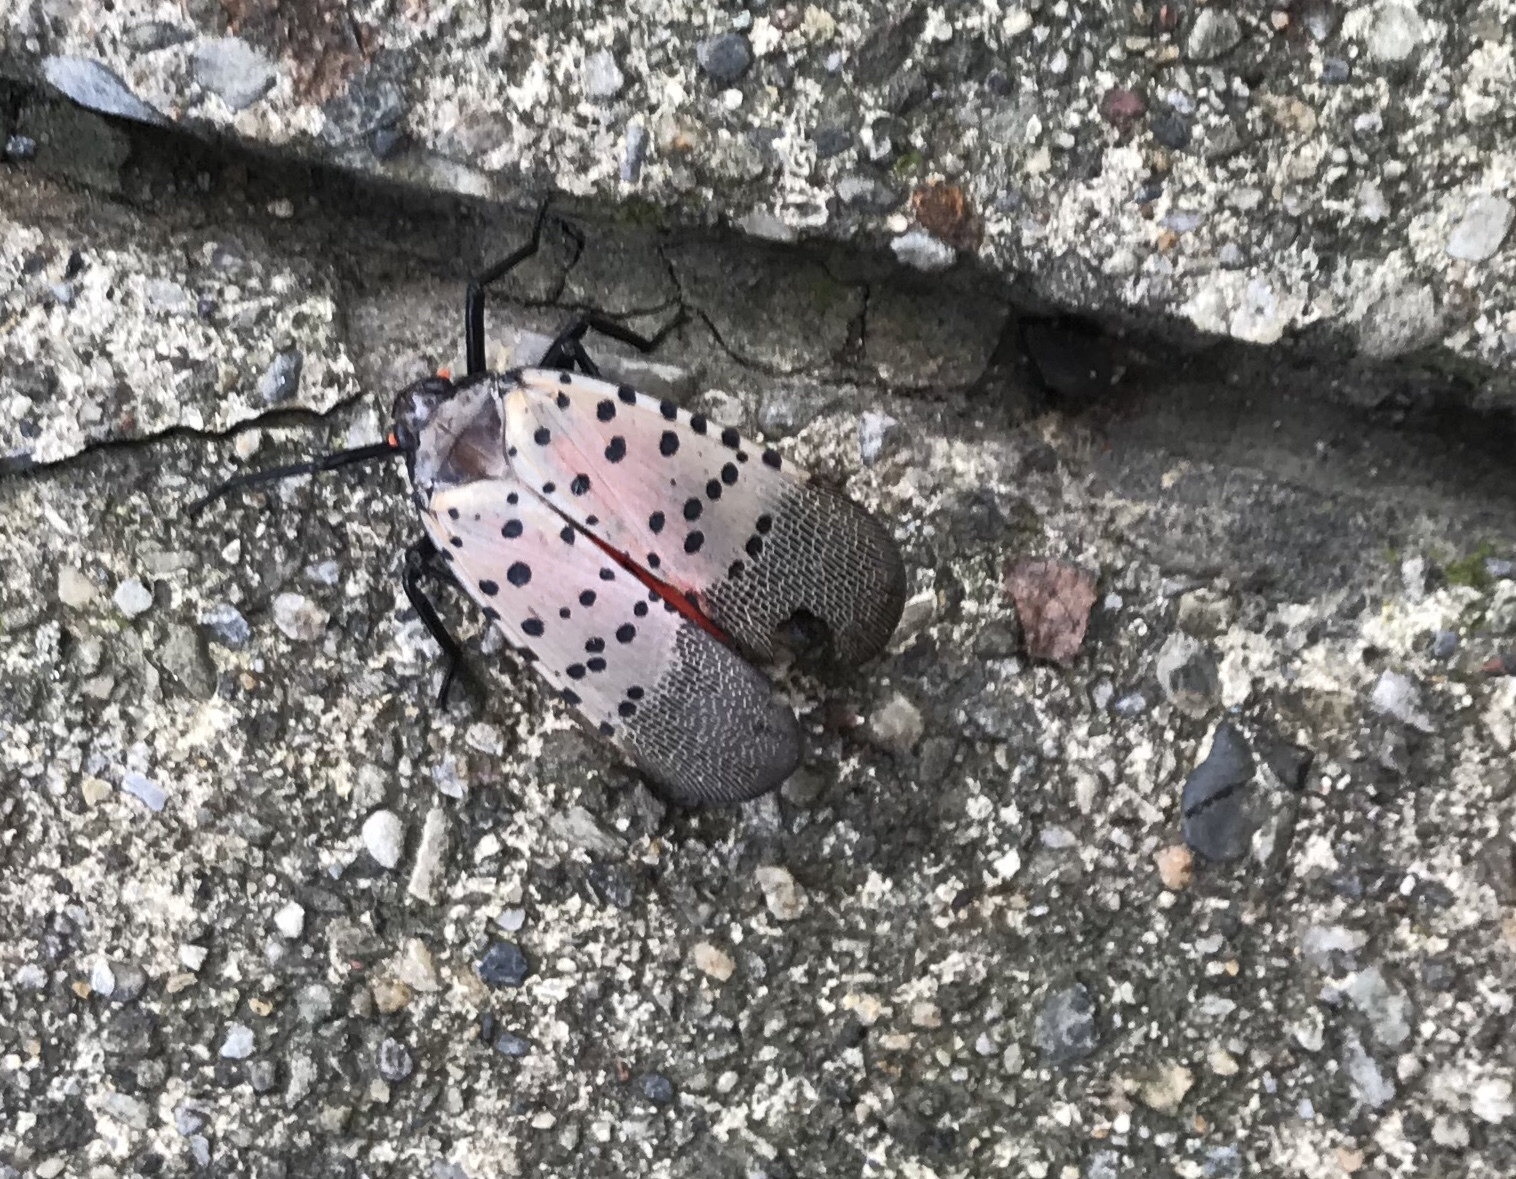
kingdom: Animalia
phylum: Arthropoda
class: Insecta
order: Hemiptera
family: Fulgoridae
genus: Lycorma
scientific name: Lycorma delicatula
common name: Spotted lanternfly
